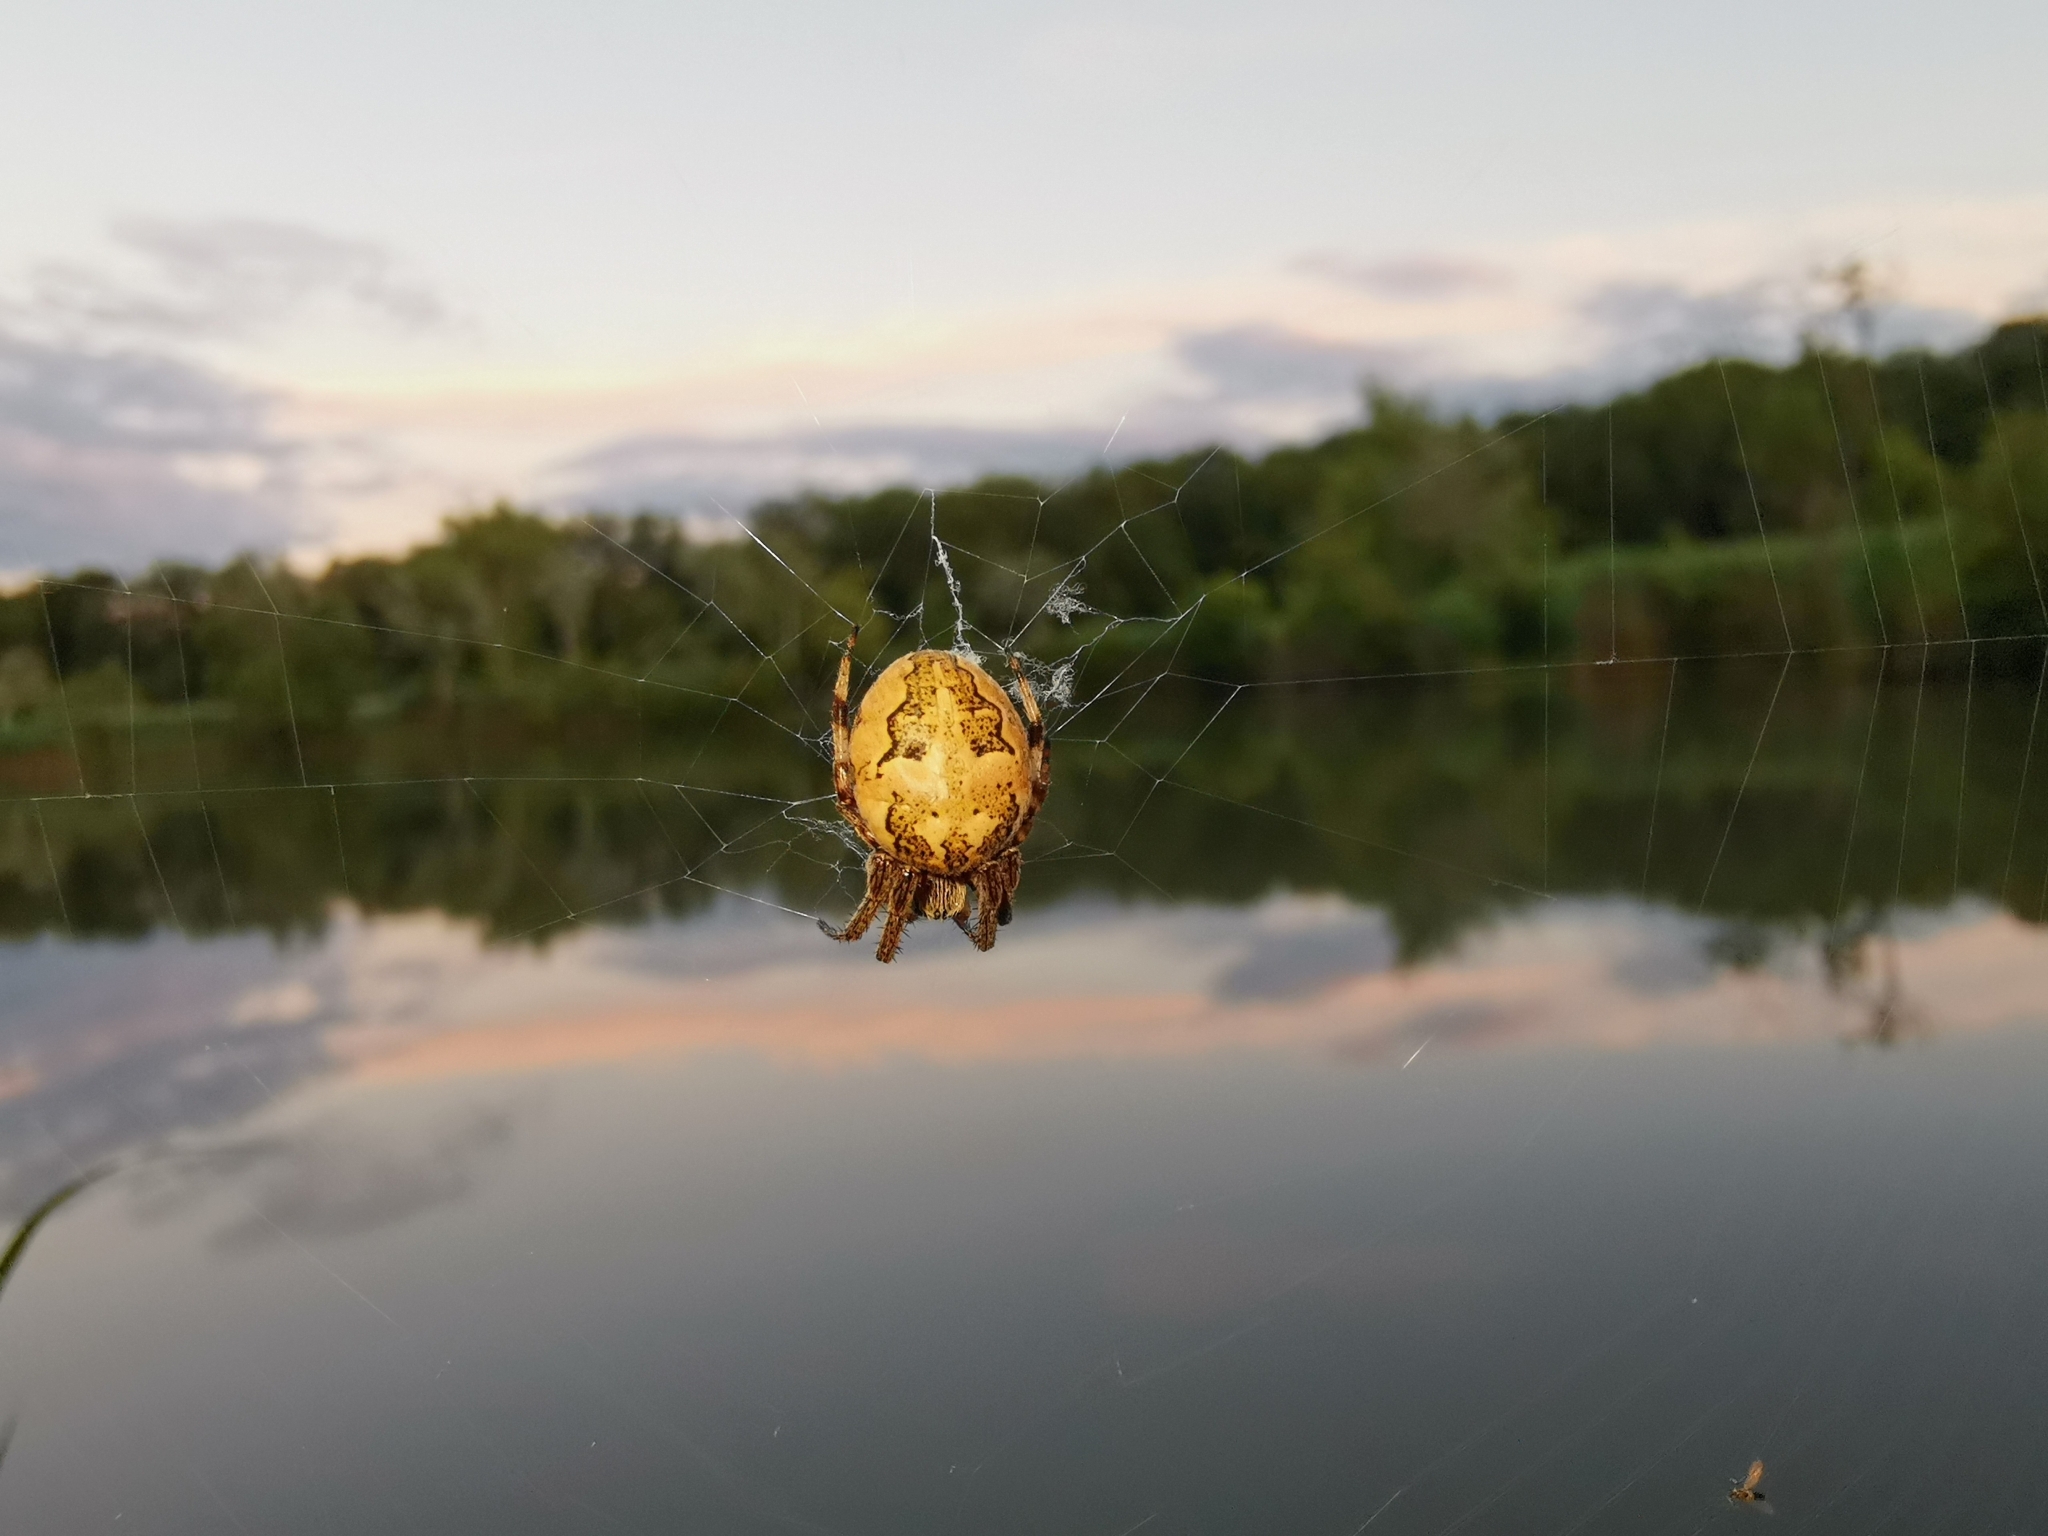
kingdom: Animalia
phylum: Arthropoda
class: Arachnida
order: Araneae
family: Araneidae
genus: Larinioides
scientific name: Larinioides cornutus
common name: Furrow orbweaver
